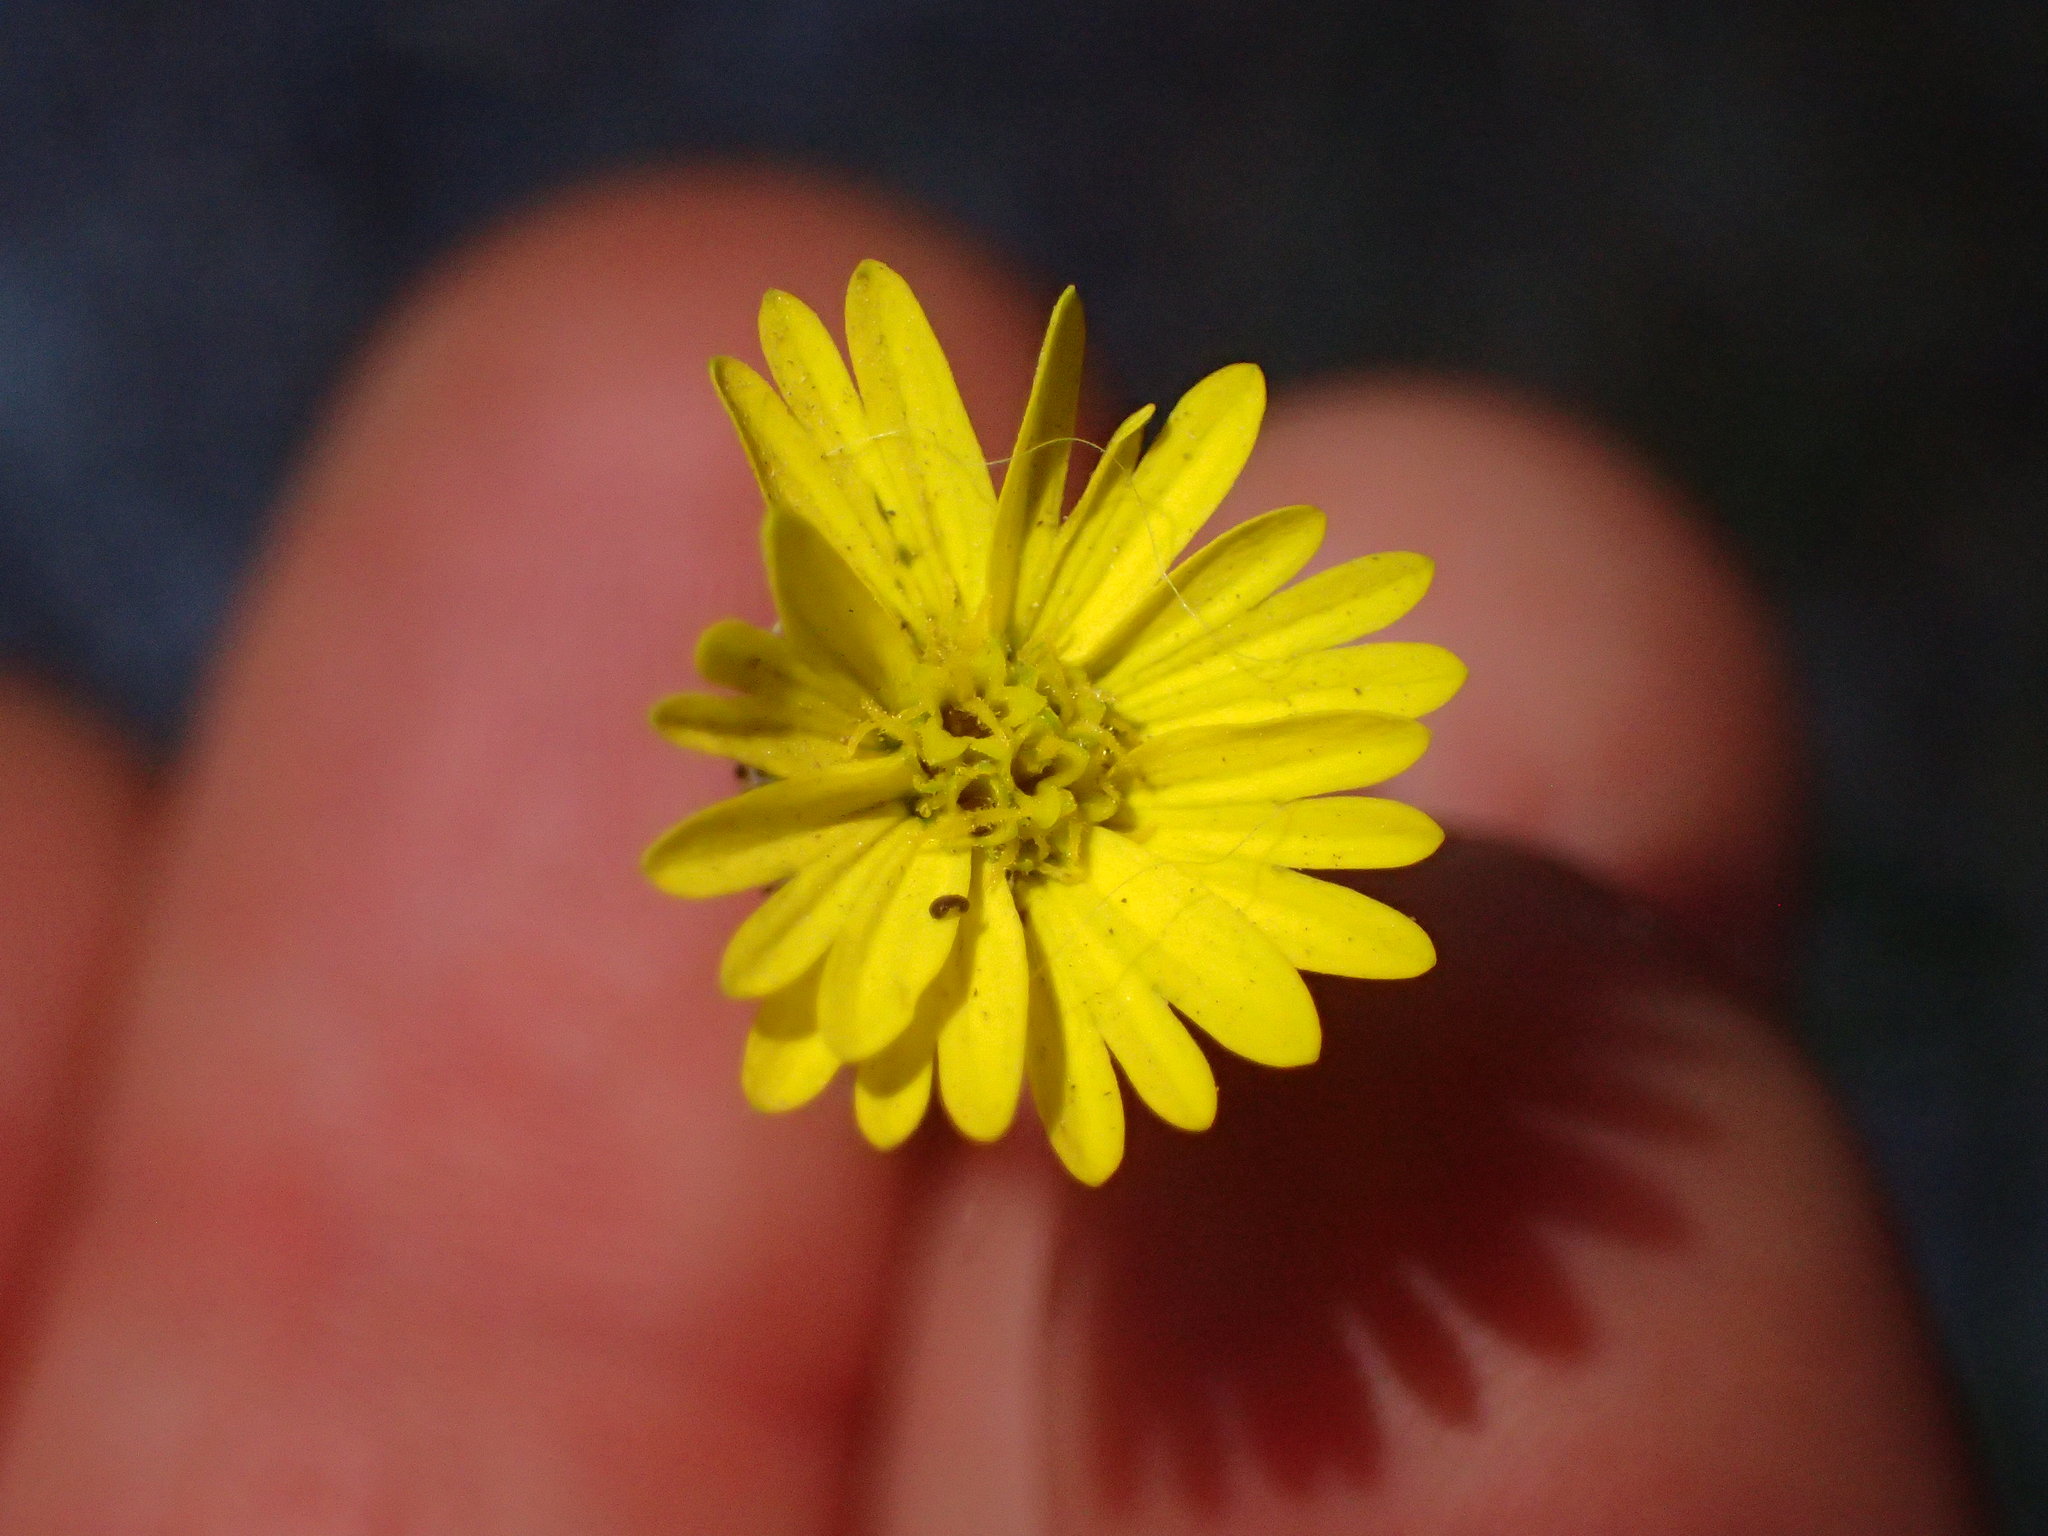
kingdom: Plantae
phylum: Tracheophyta
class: Magnoliopsida
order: Asterales
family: Asteraceae
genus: Anisocarpus
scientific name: Anisocarpus madioides
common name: Woodland madia
